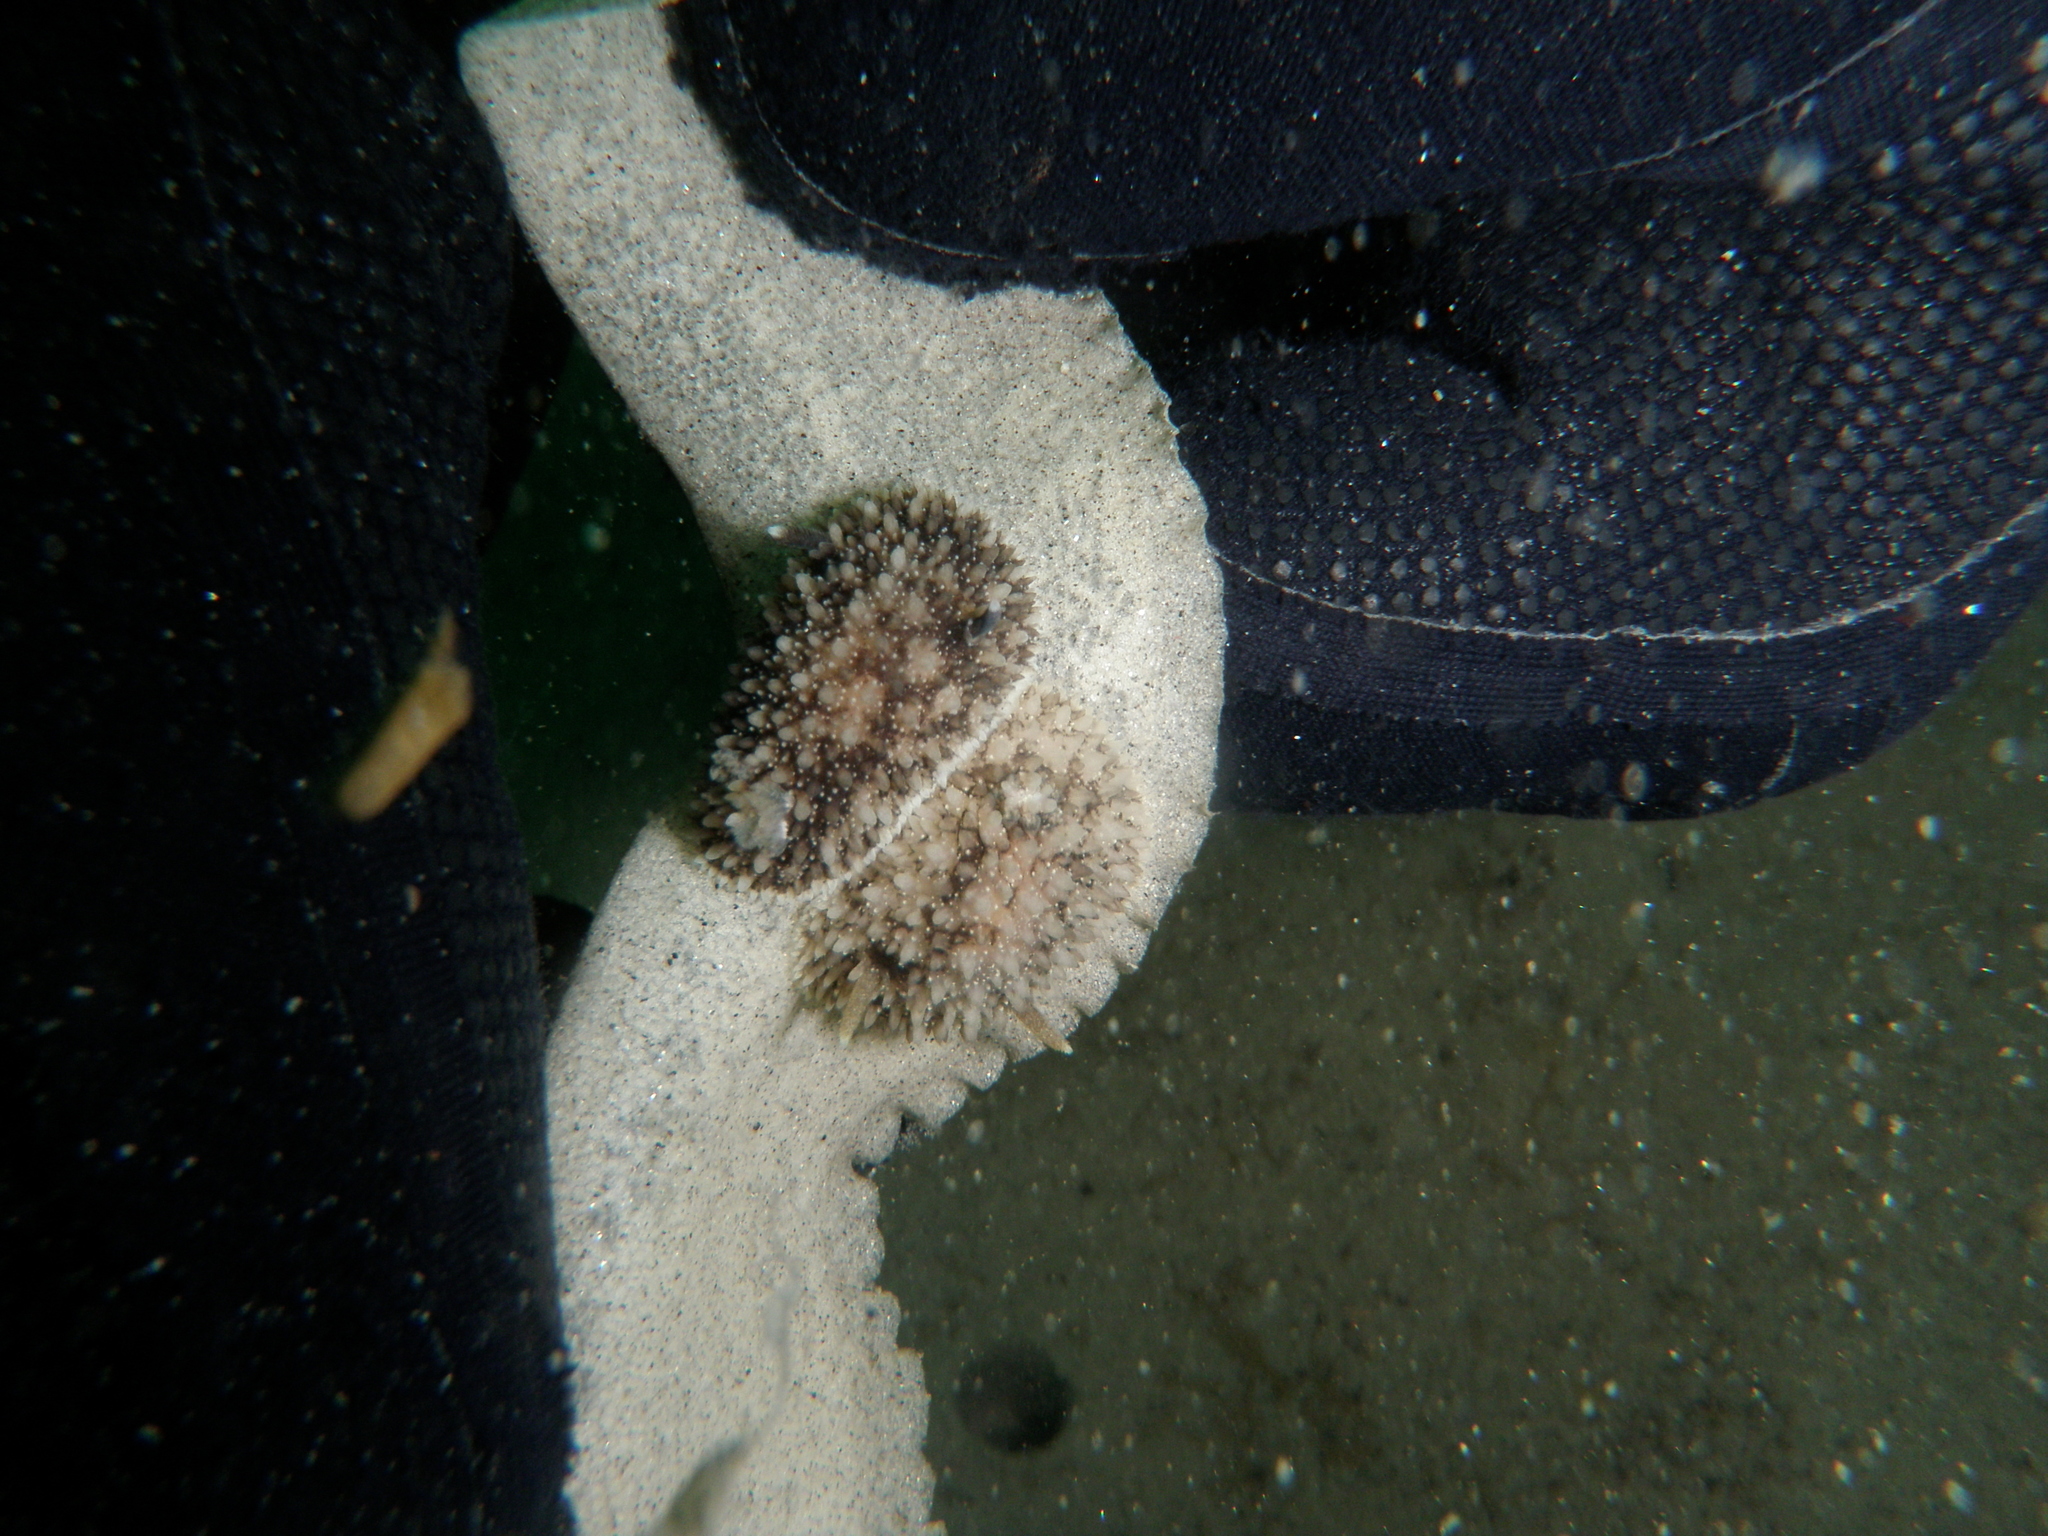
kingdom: Animalia
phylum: Mollusca
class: Gastropoda
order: Nudibranchia
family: Onchidorididae
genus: Acanthodoris
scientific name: Acanthodoris brunnea
